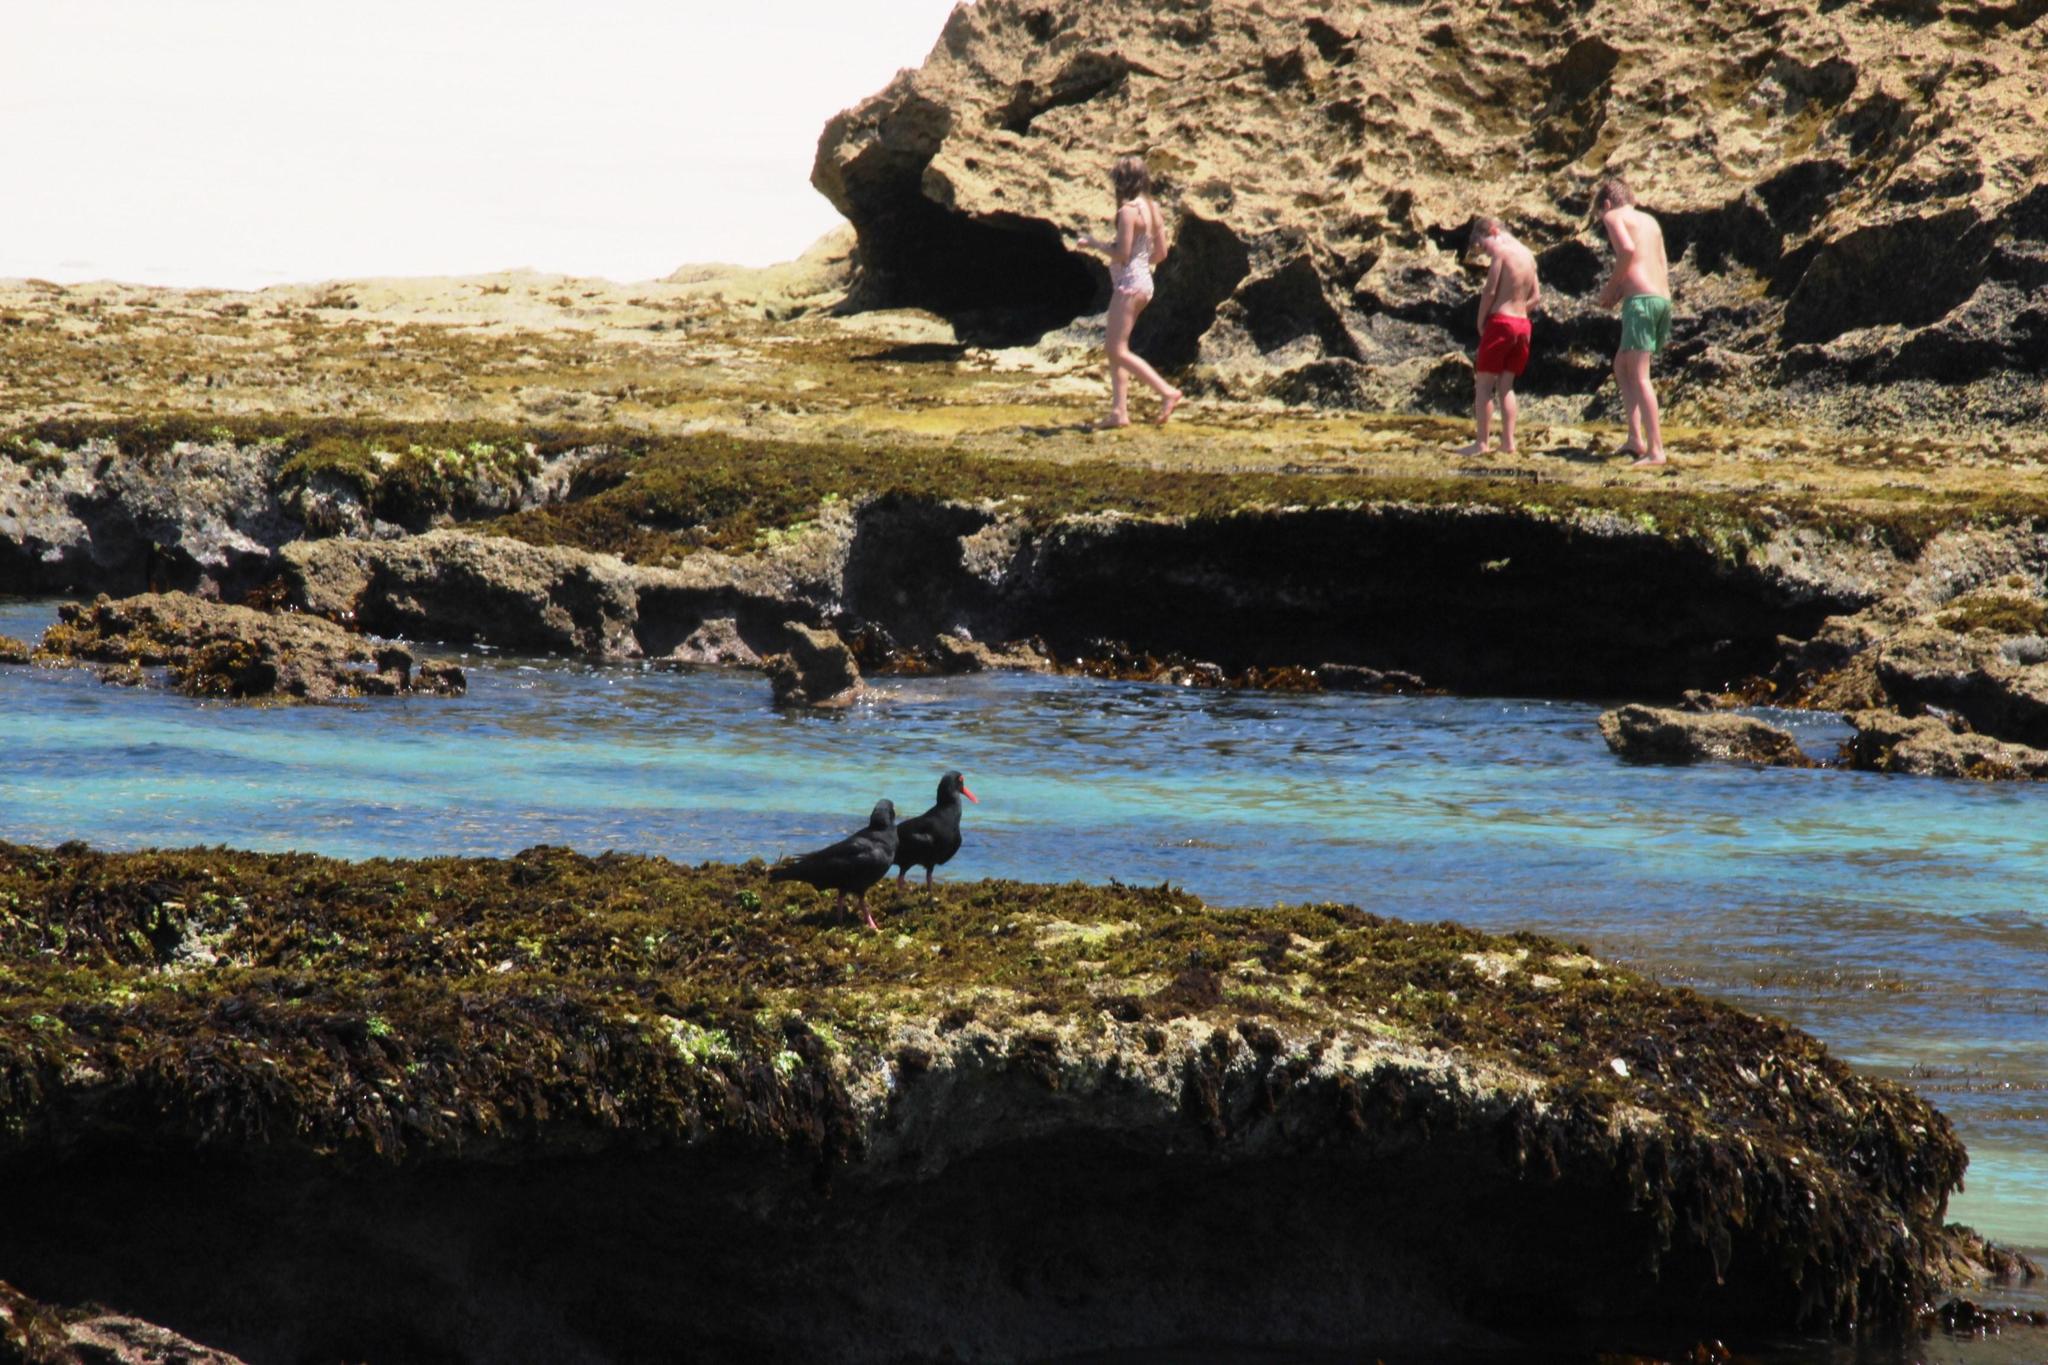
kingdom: Animalia
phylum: Chordata
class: Aves
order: Charadriiformes
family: Haematopodidae
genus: Haematopus
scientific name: Haematopus moquini
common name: African oystercatcher
